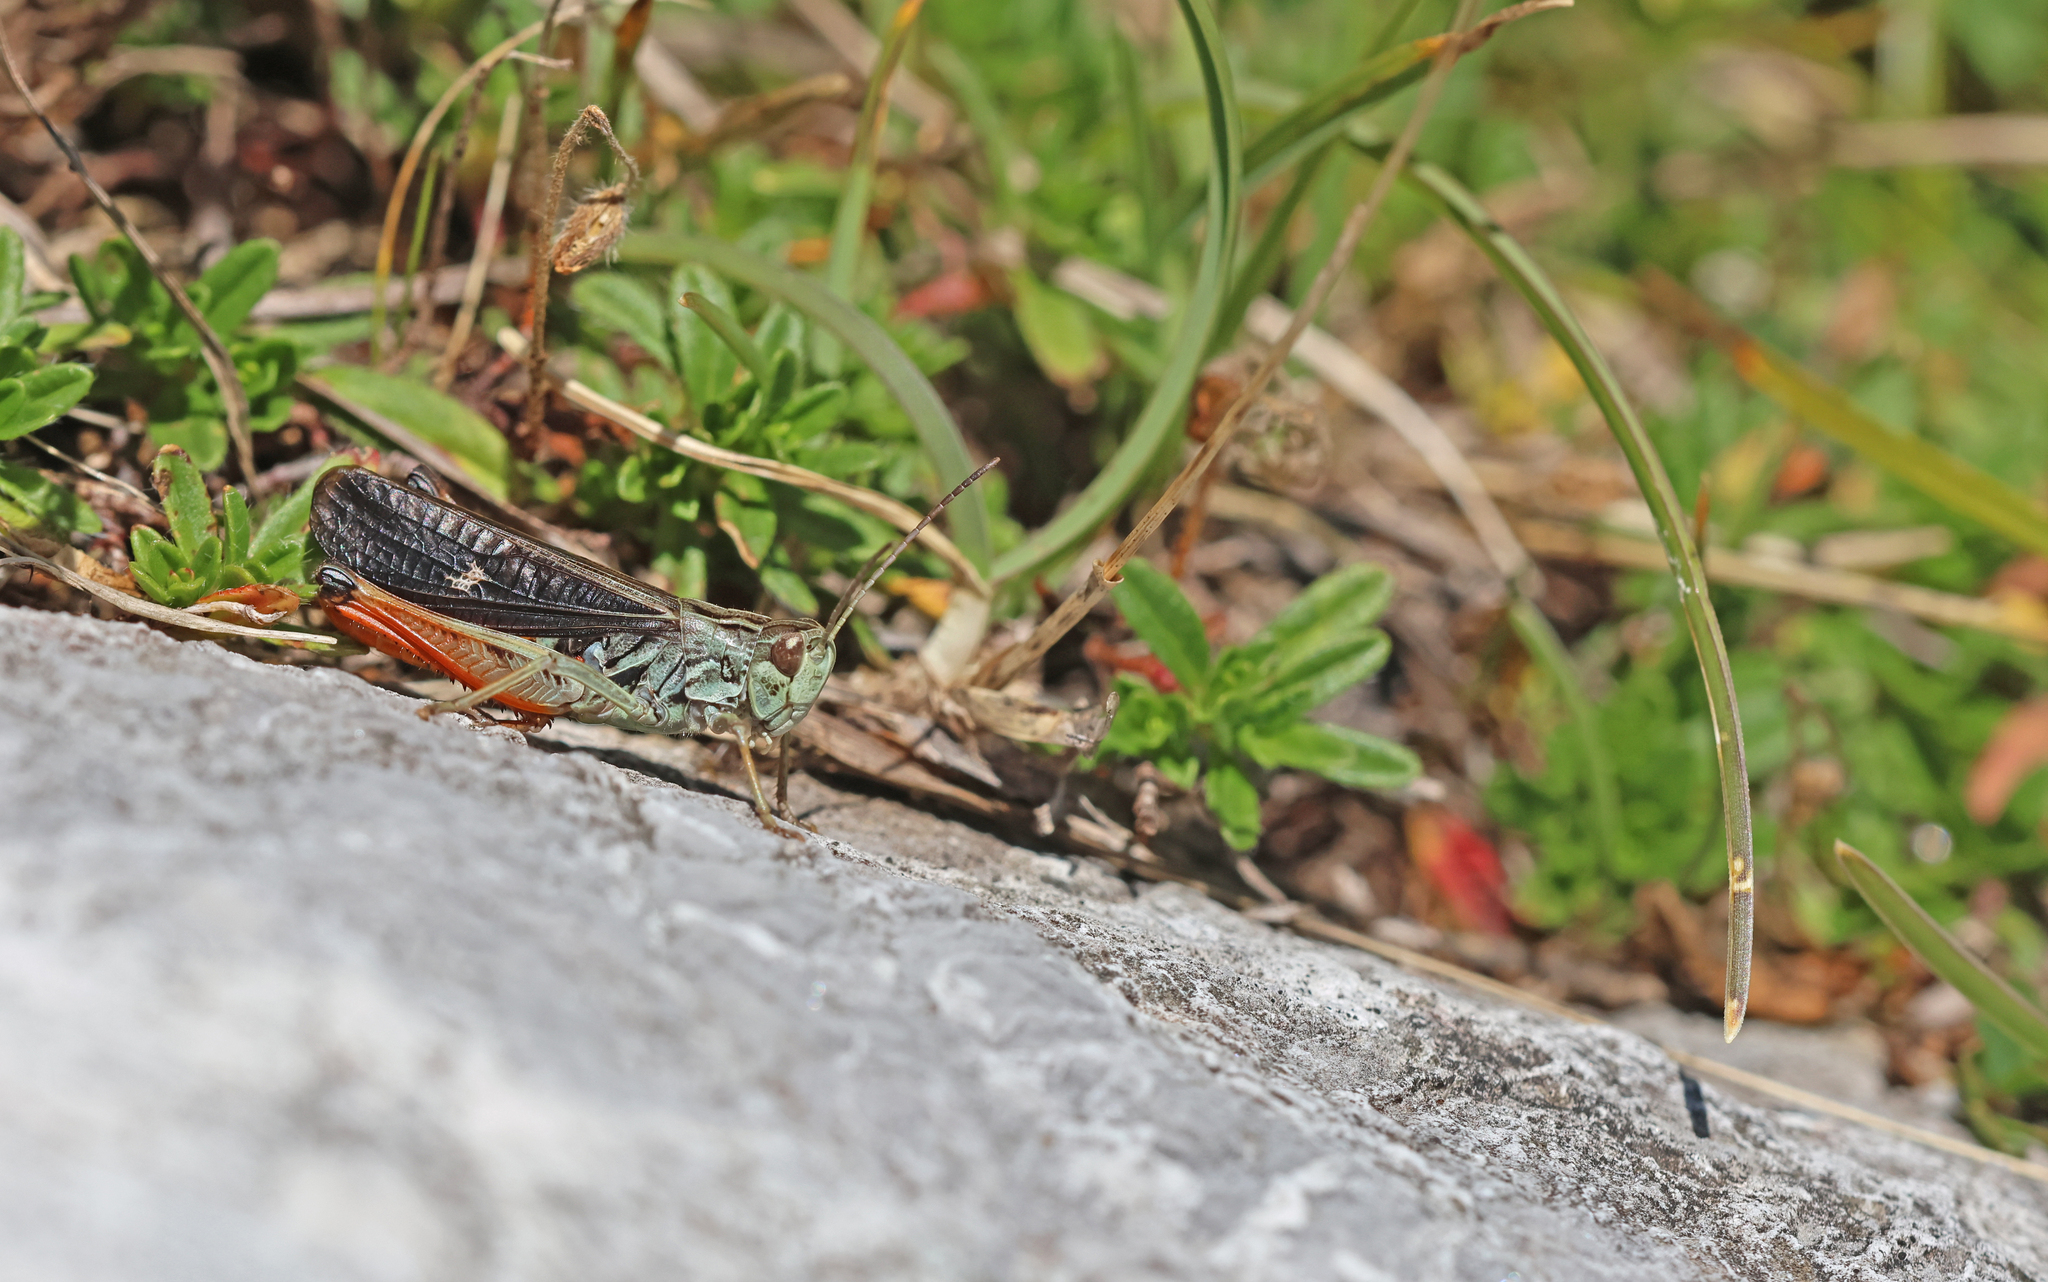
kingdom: Animalia
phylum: Arthropoda
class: Insecta
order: Orthoptera
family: Acrididae
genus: Stenobothrus
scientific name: Stenobothrus rubicundulus
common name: Wing-buzzing grasshopper
